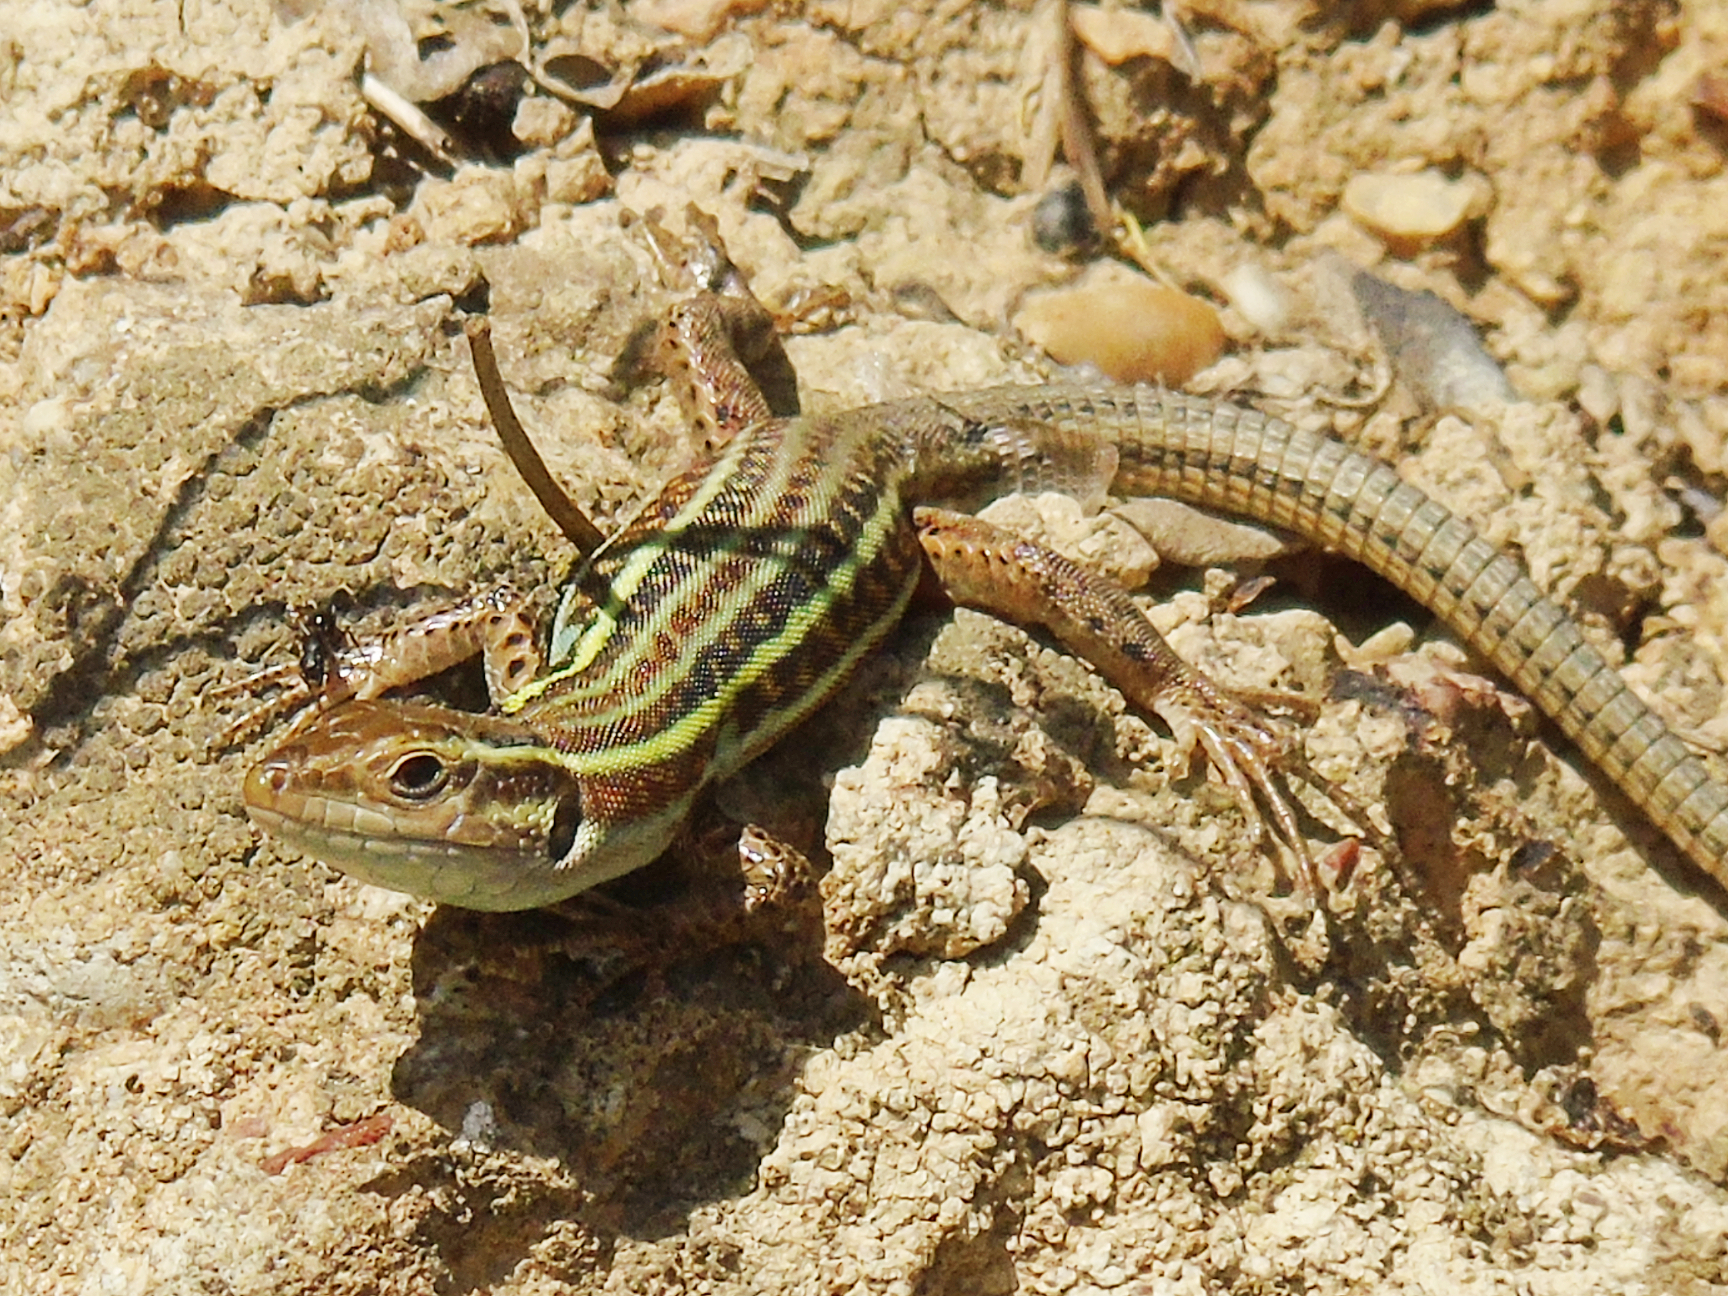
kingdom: Animalia
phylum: Chordata
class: Squamata
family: Lacertidae
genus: Podarcis
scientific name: Podarcis peloponnesiacus
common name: Peloponnese wall lizard
